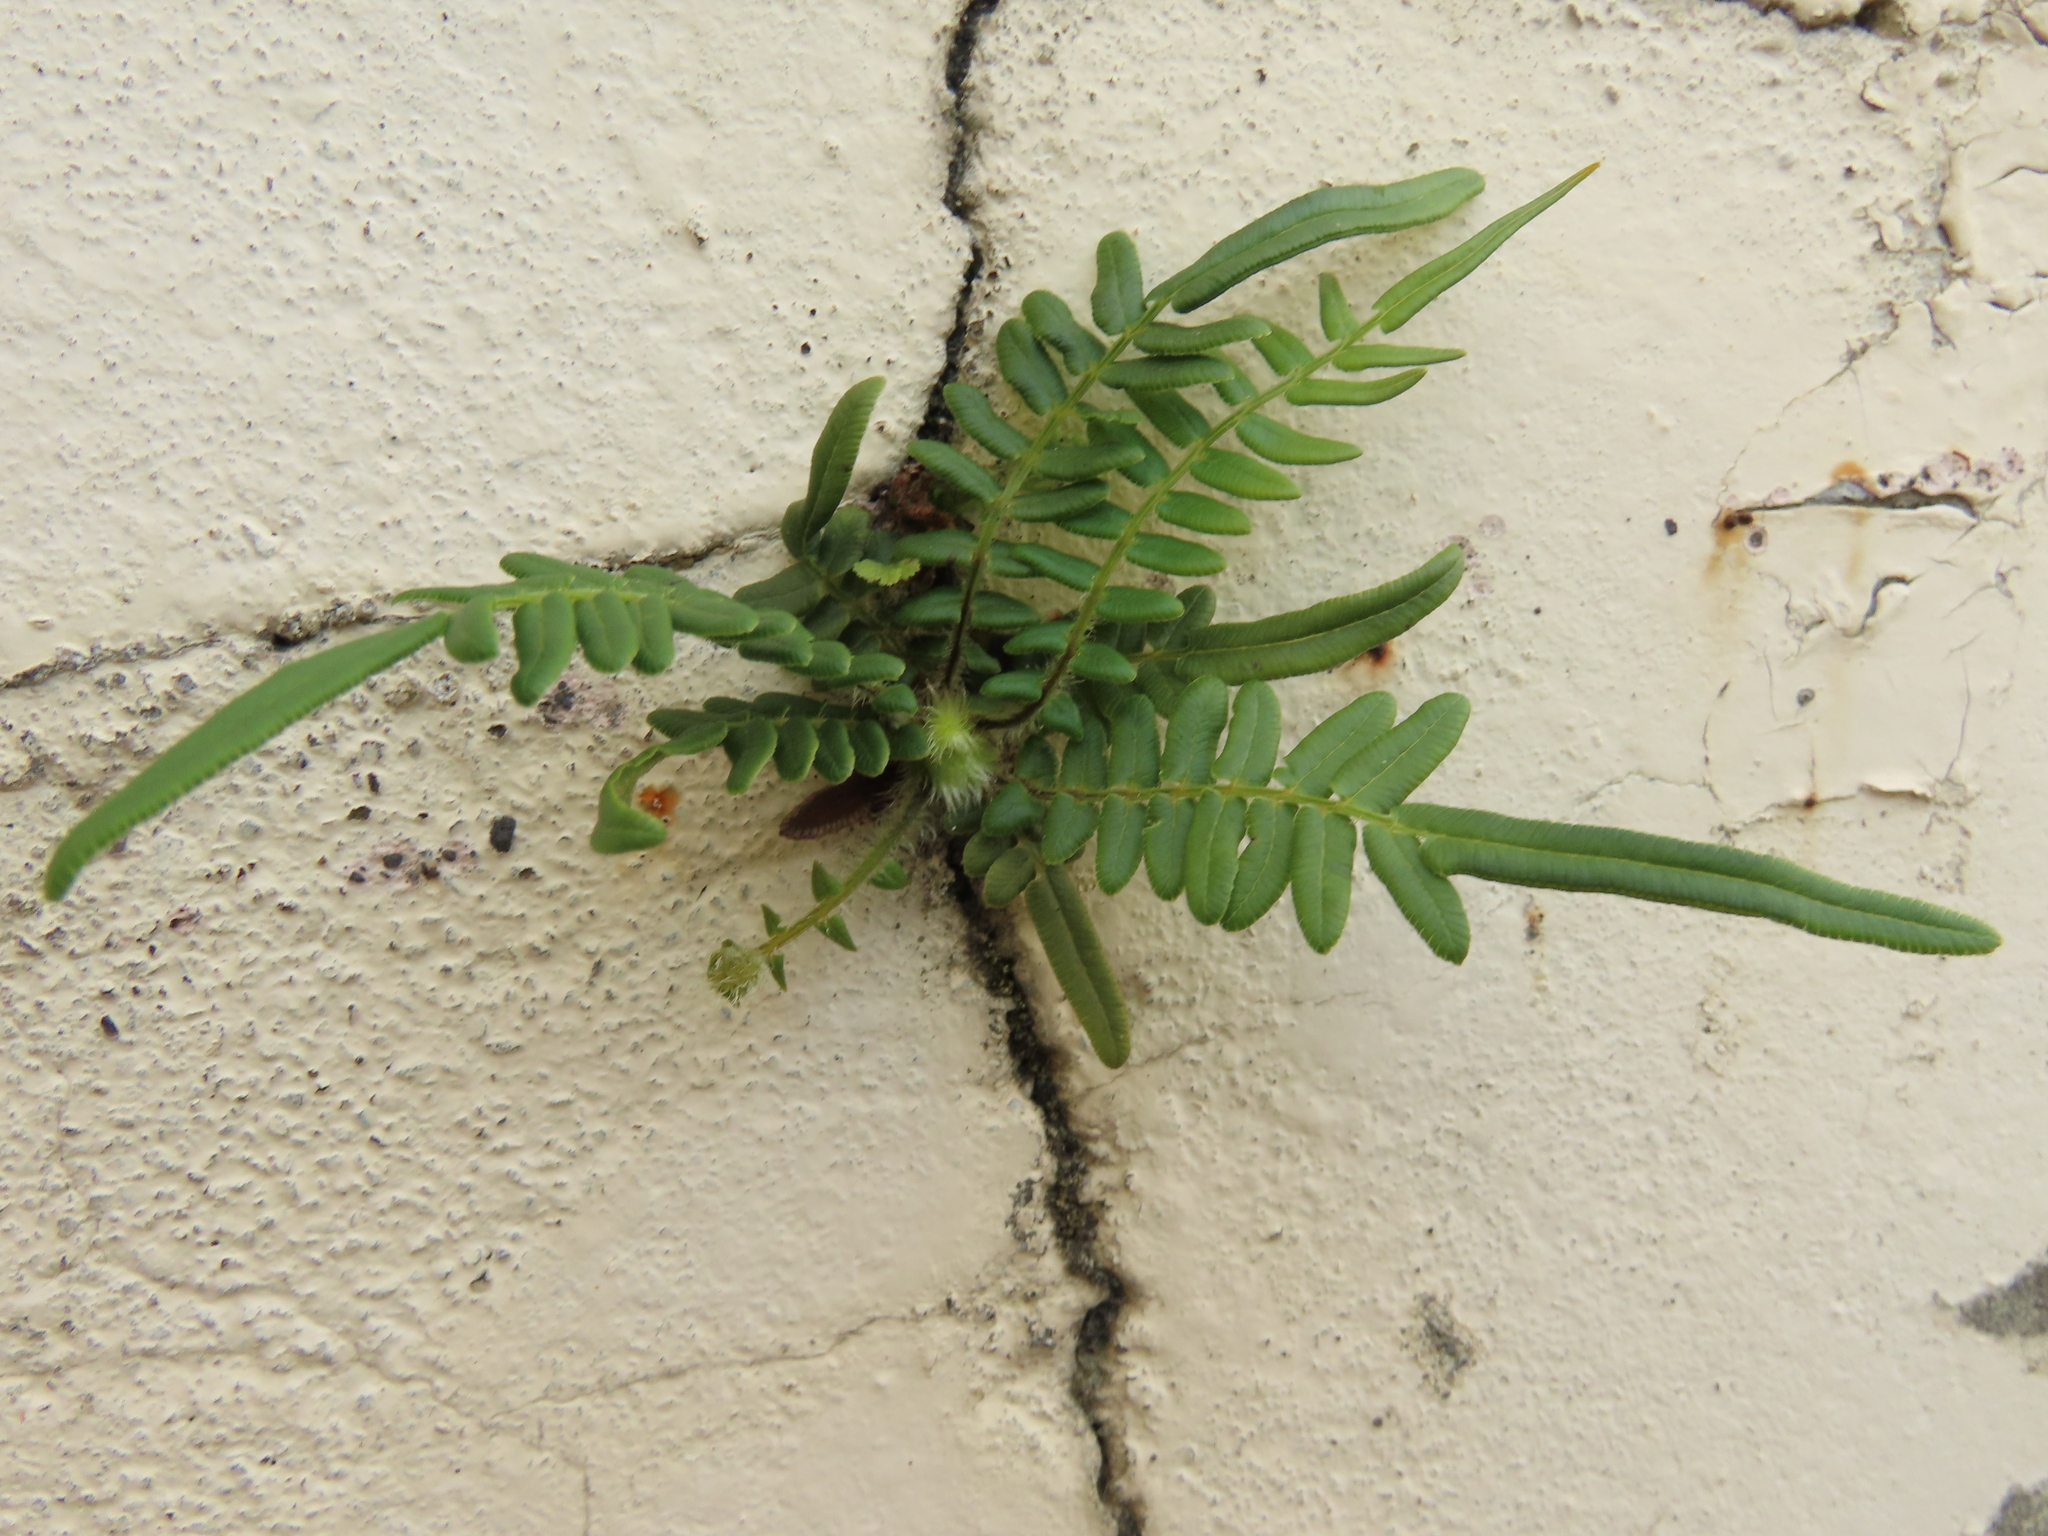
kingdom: Plantae
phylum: Tracheophyta
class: Polypodiopsida
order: Polypodiales
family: Pteridaceae
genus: Pteris
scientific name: Pteris vittata
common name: Ladder brake
